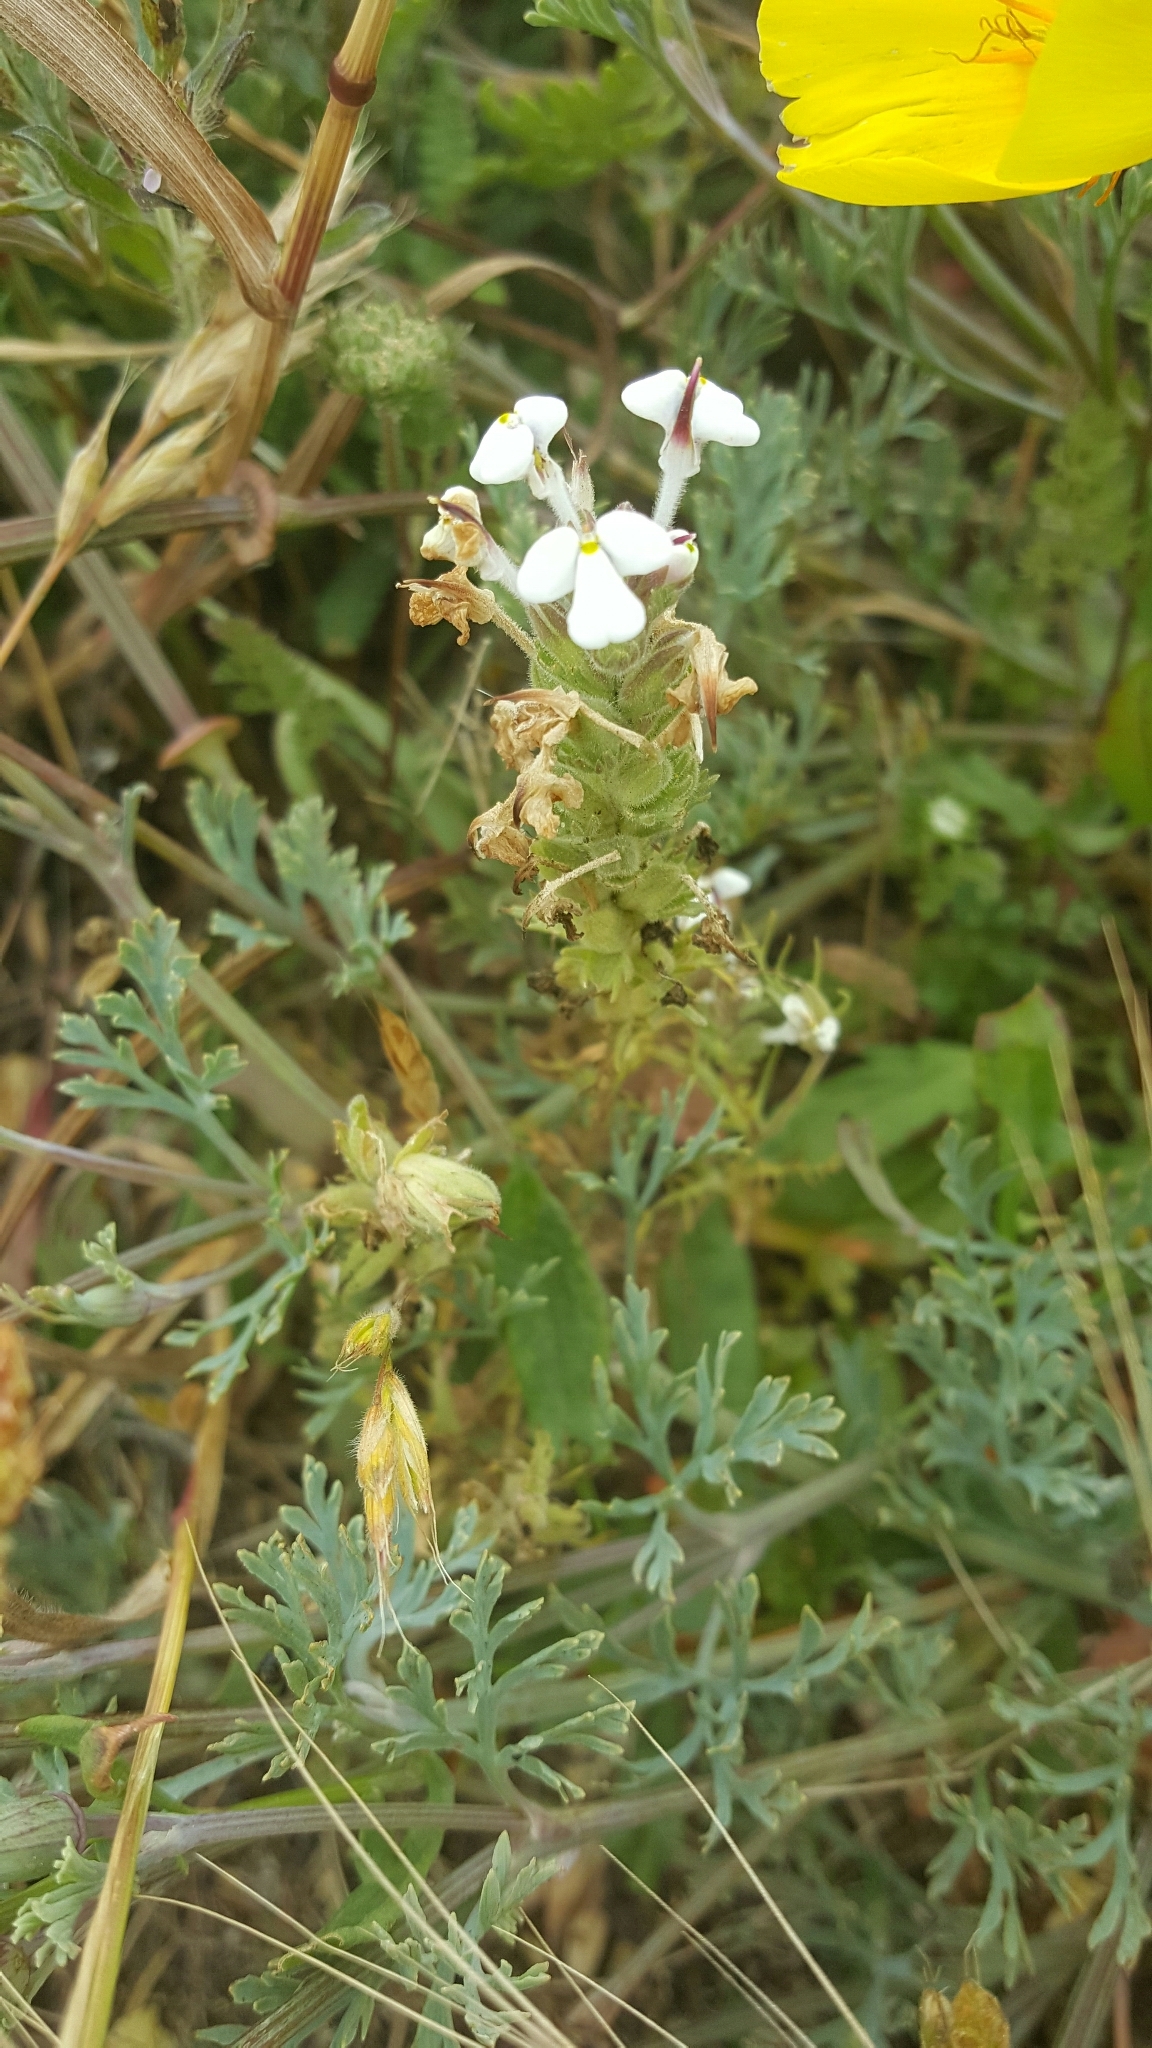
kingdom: Plantae
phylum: Tracheophyta
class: Magnoliopsida
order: Lamiales
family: Orobanchaceae
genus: Triphysaria
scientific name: Triphysaria eriantha
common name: Johnny-tuck
